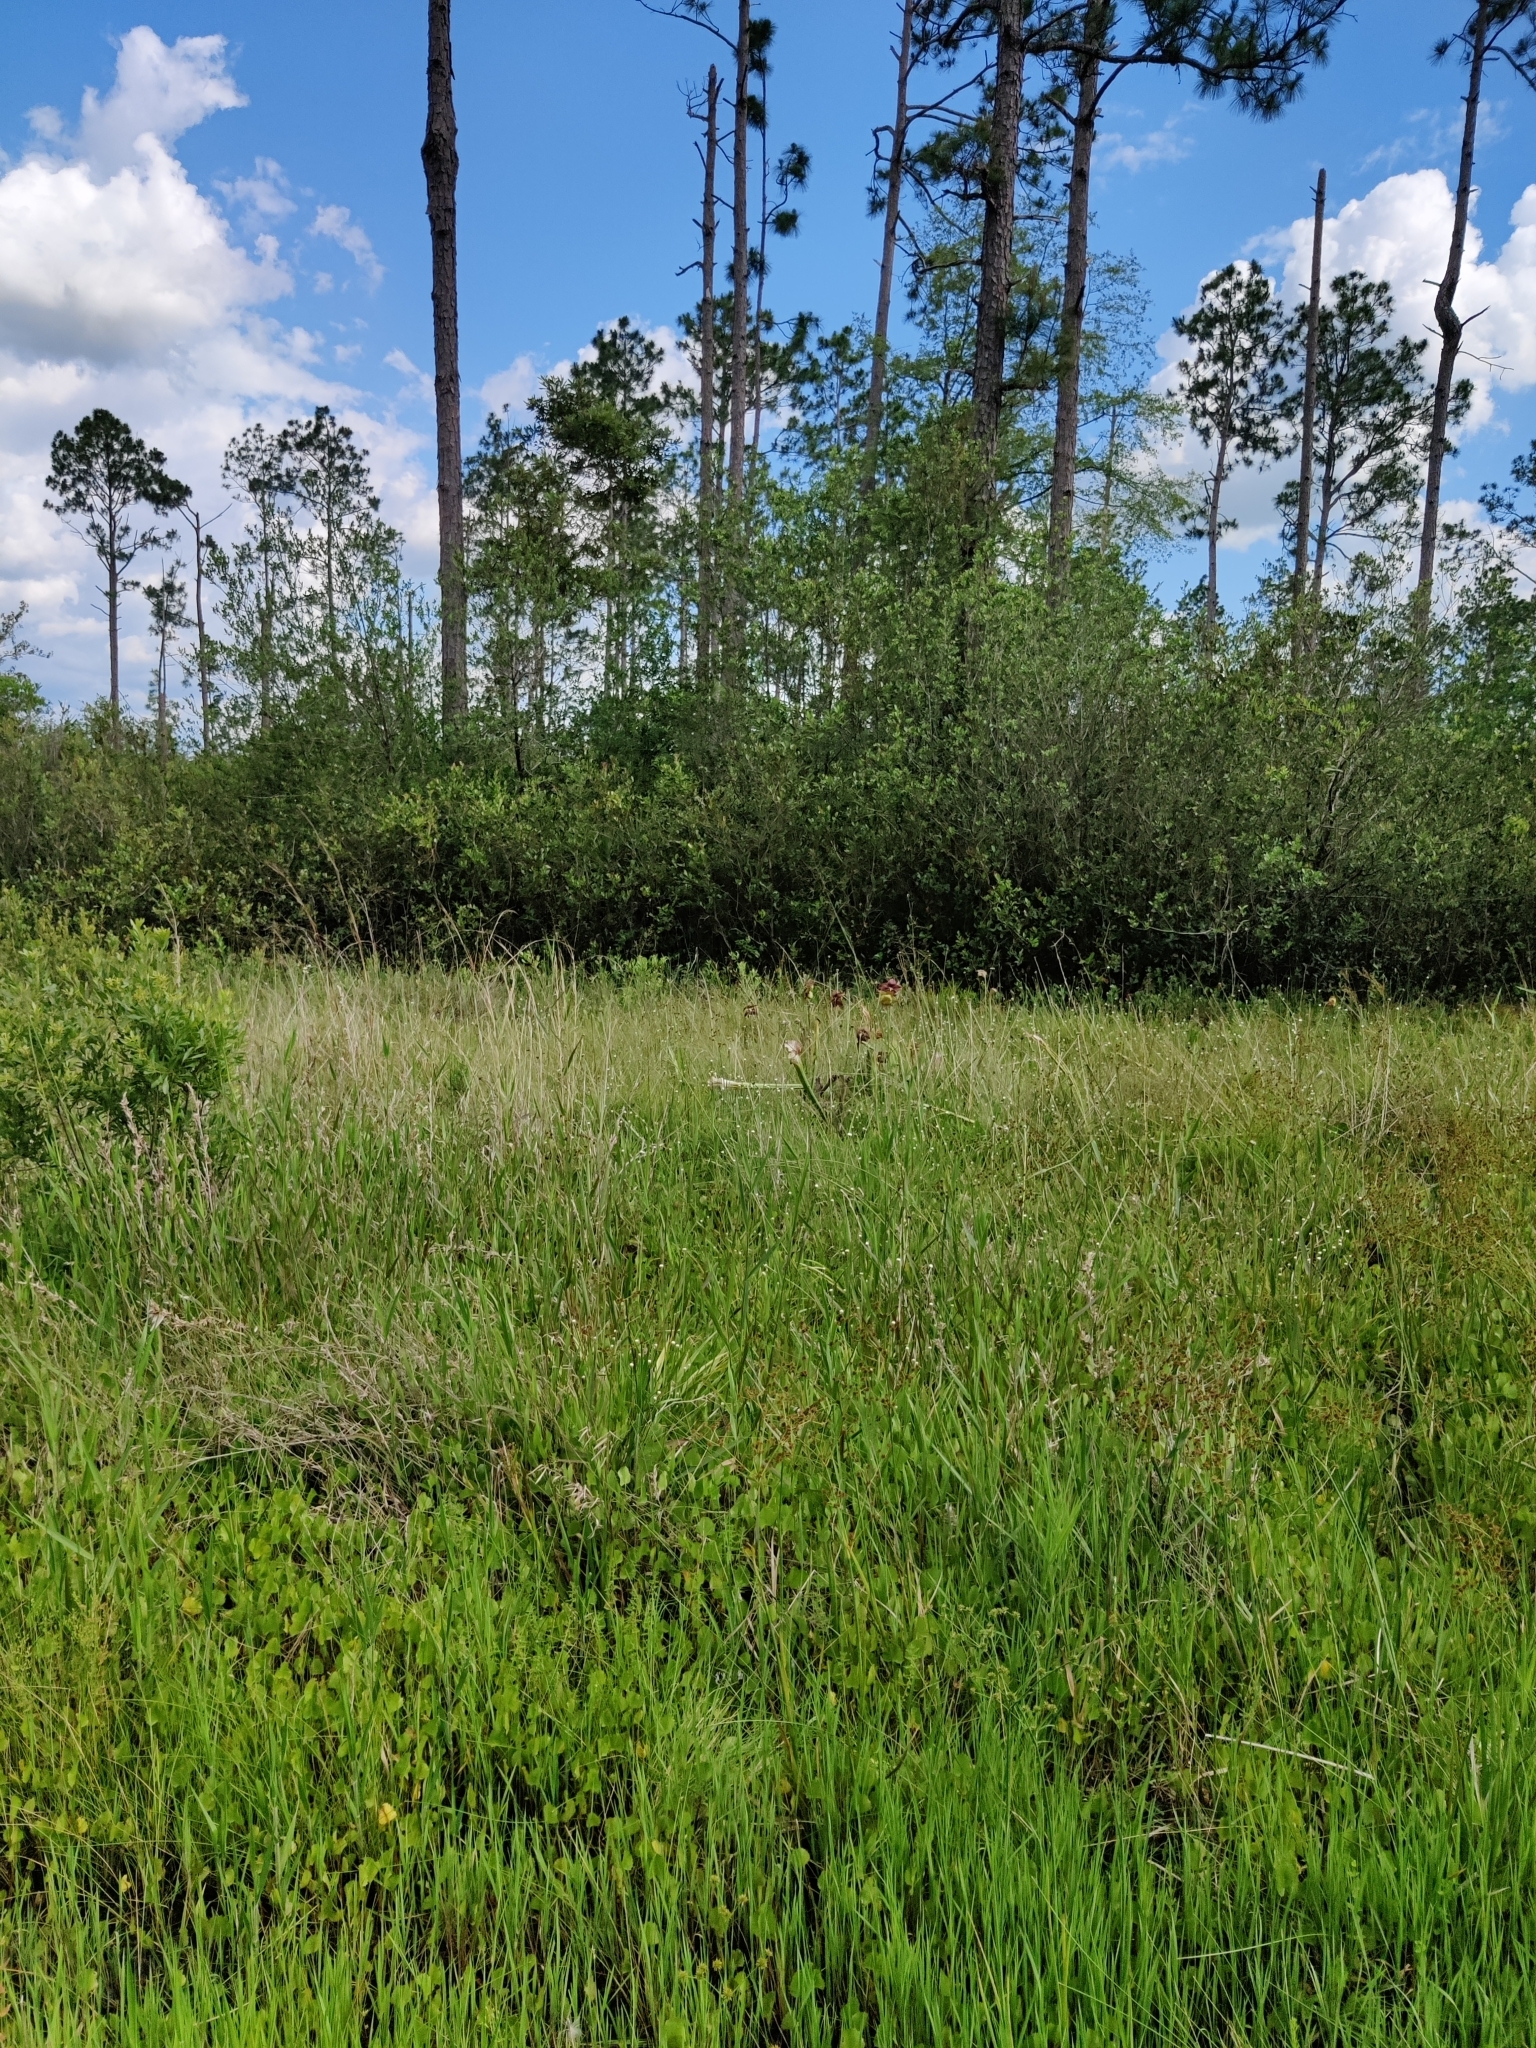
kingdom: Plantae
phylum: Tracheophyta
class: Magnoliopsida
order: Ericales
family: Sarraceniaceae
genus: Sarracenia
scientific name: Sarracenia leucophylla
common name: Purple trumpetleaf
